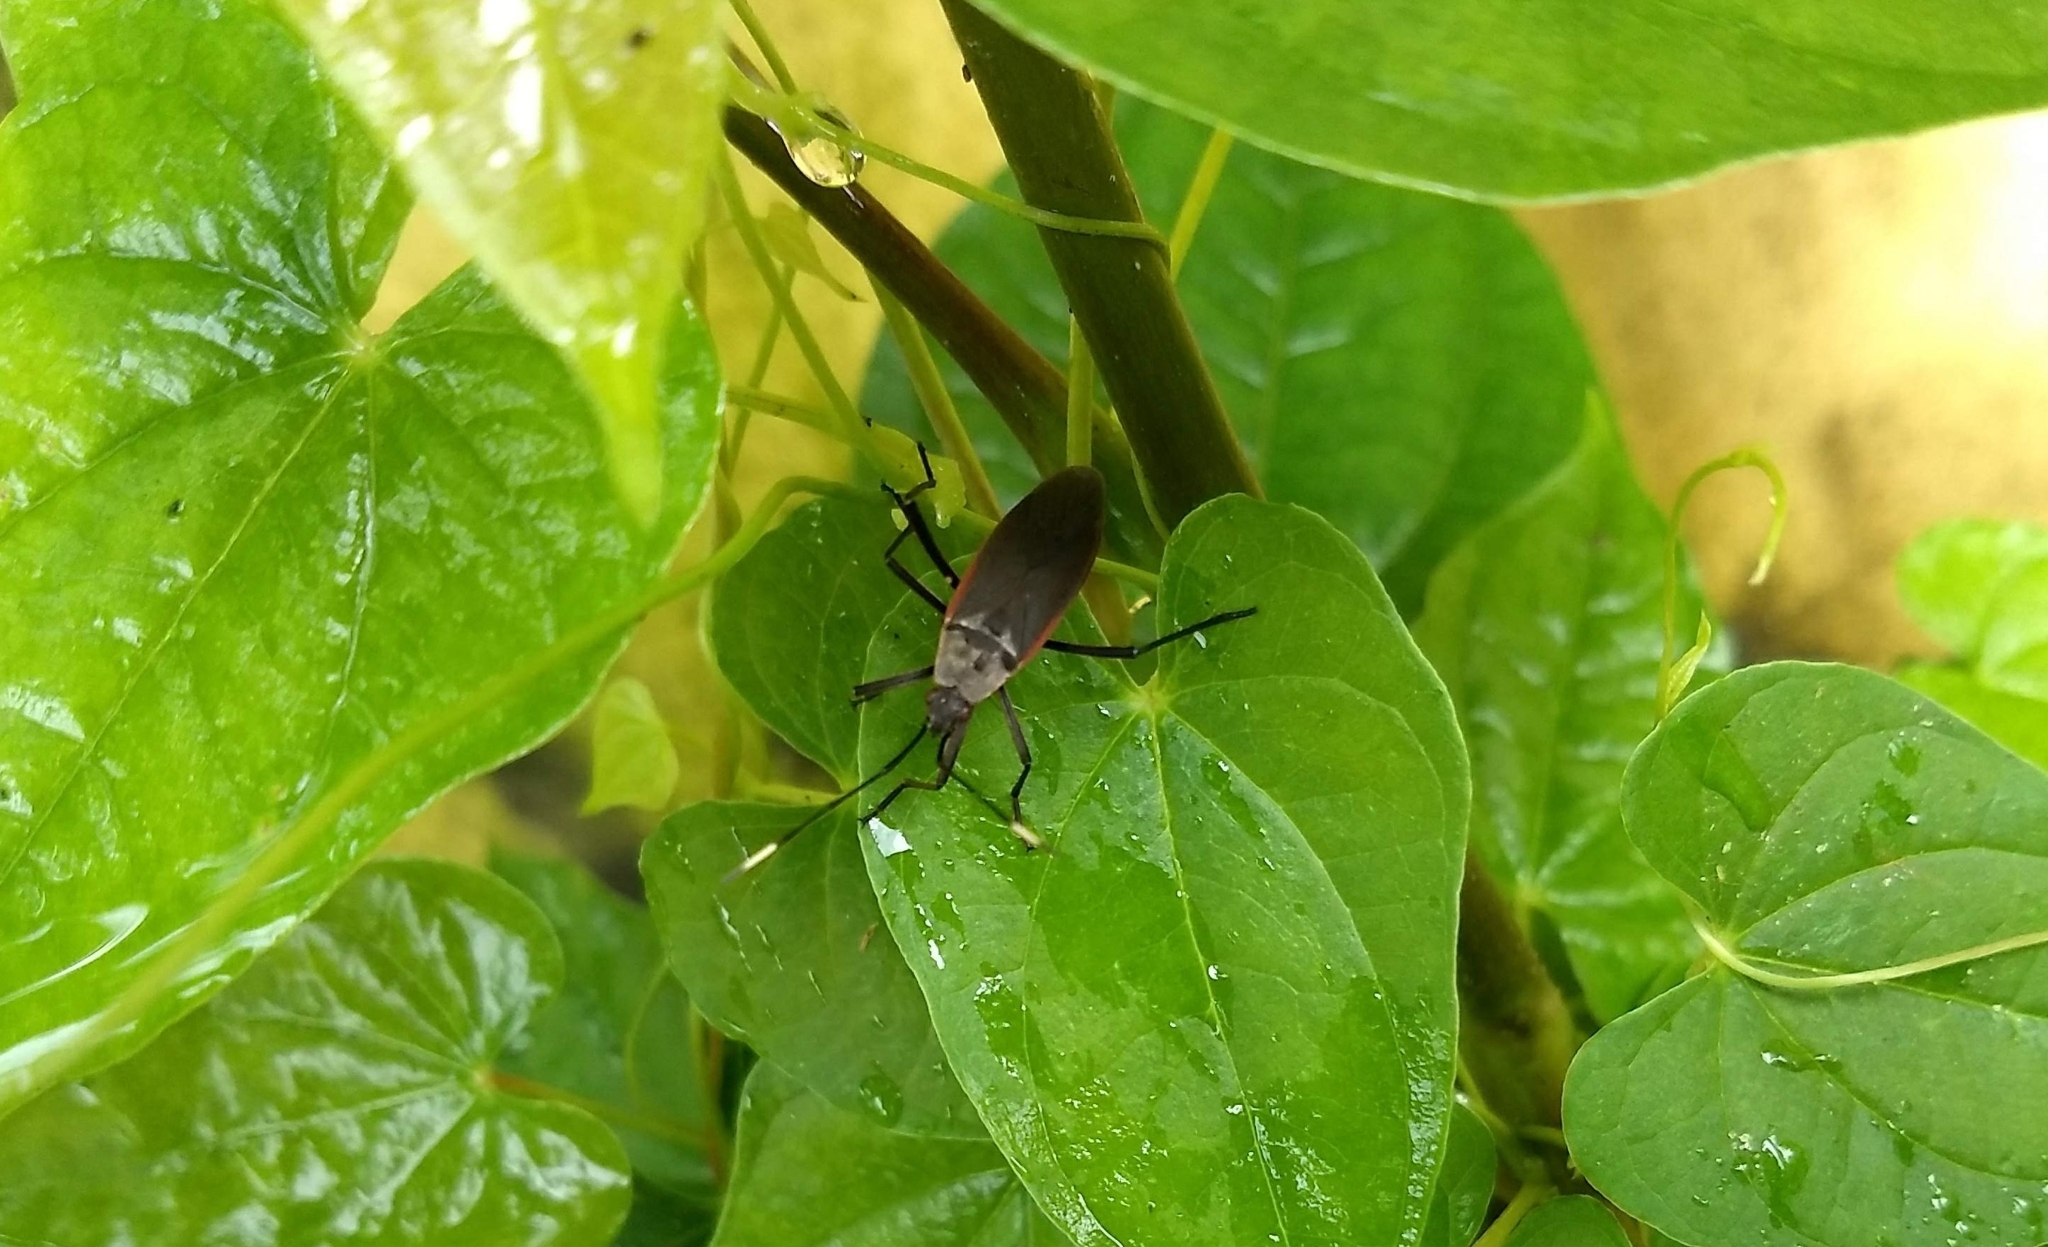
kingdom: Animalia
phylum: Arthropoda
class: Insecta
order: Hemiptera
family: Pyrrhocoridae
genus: Melamphaus
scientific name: Melamphaus
